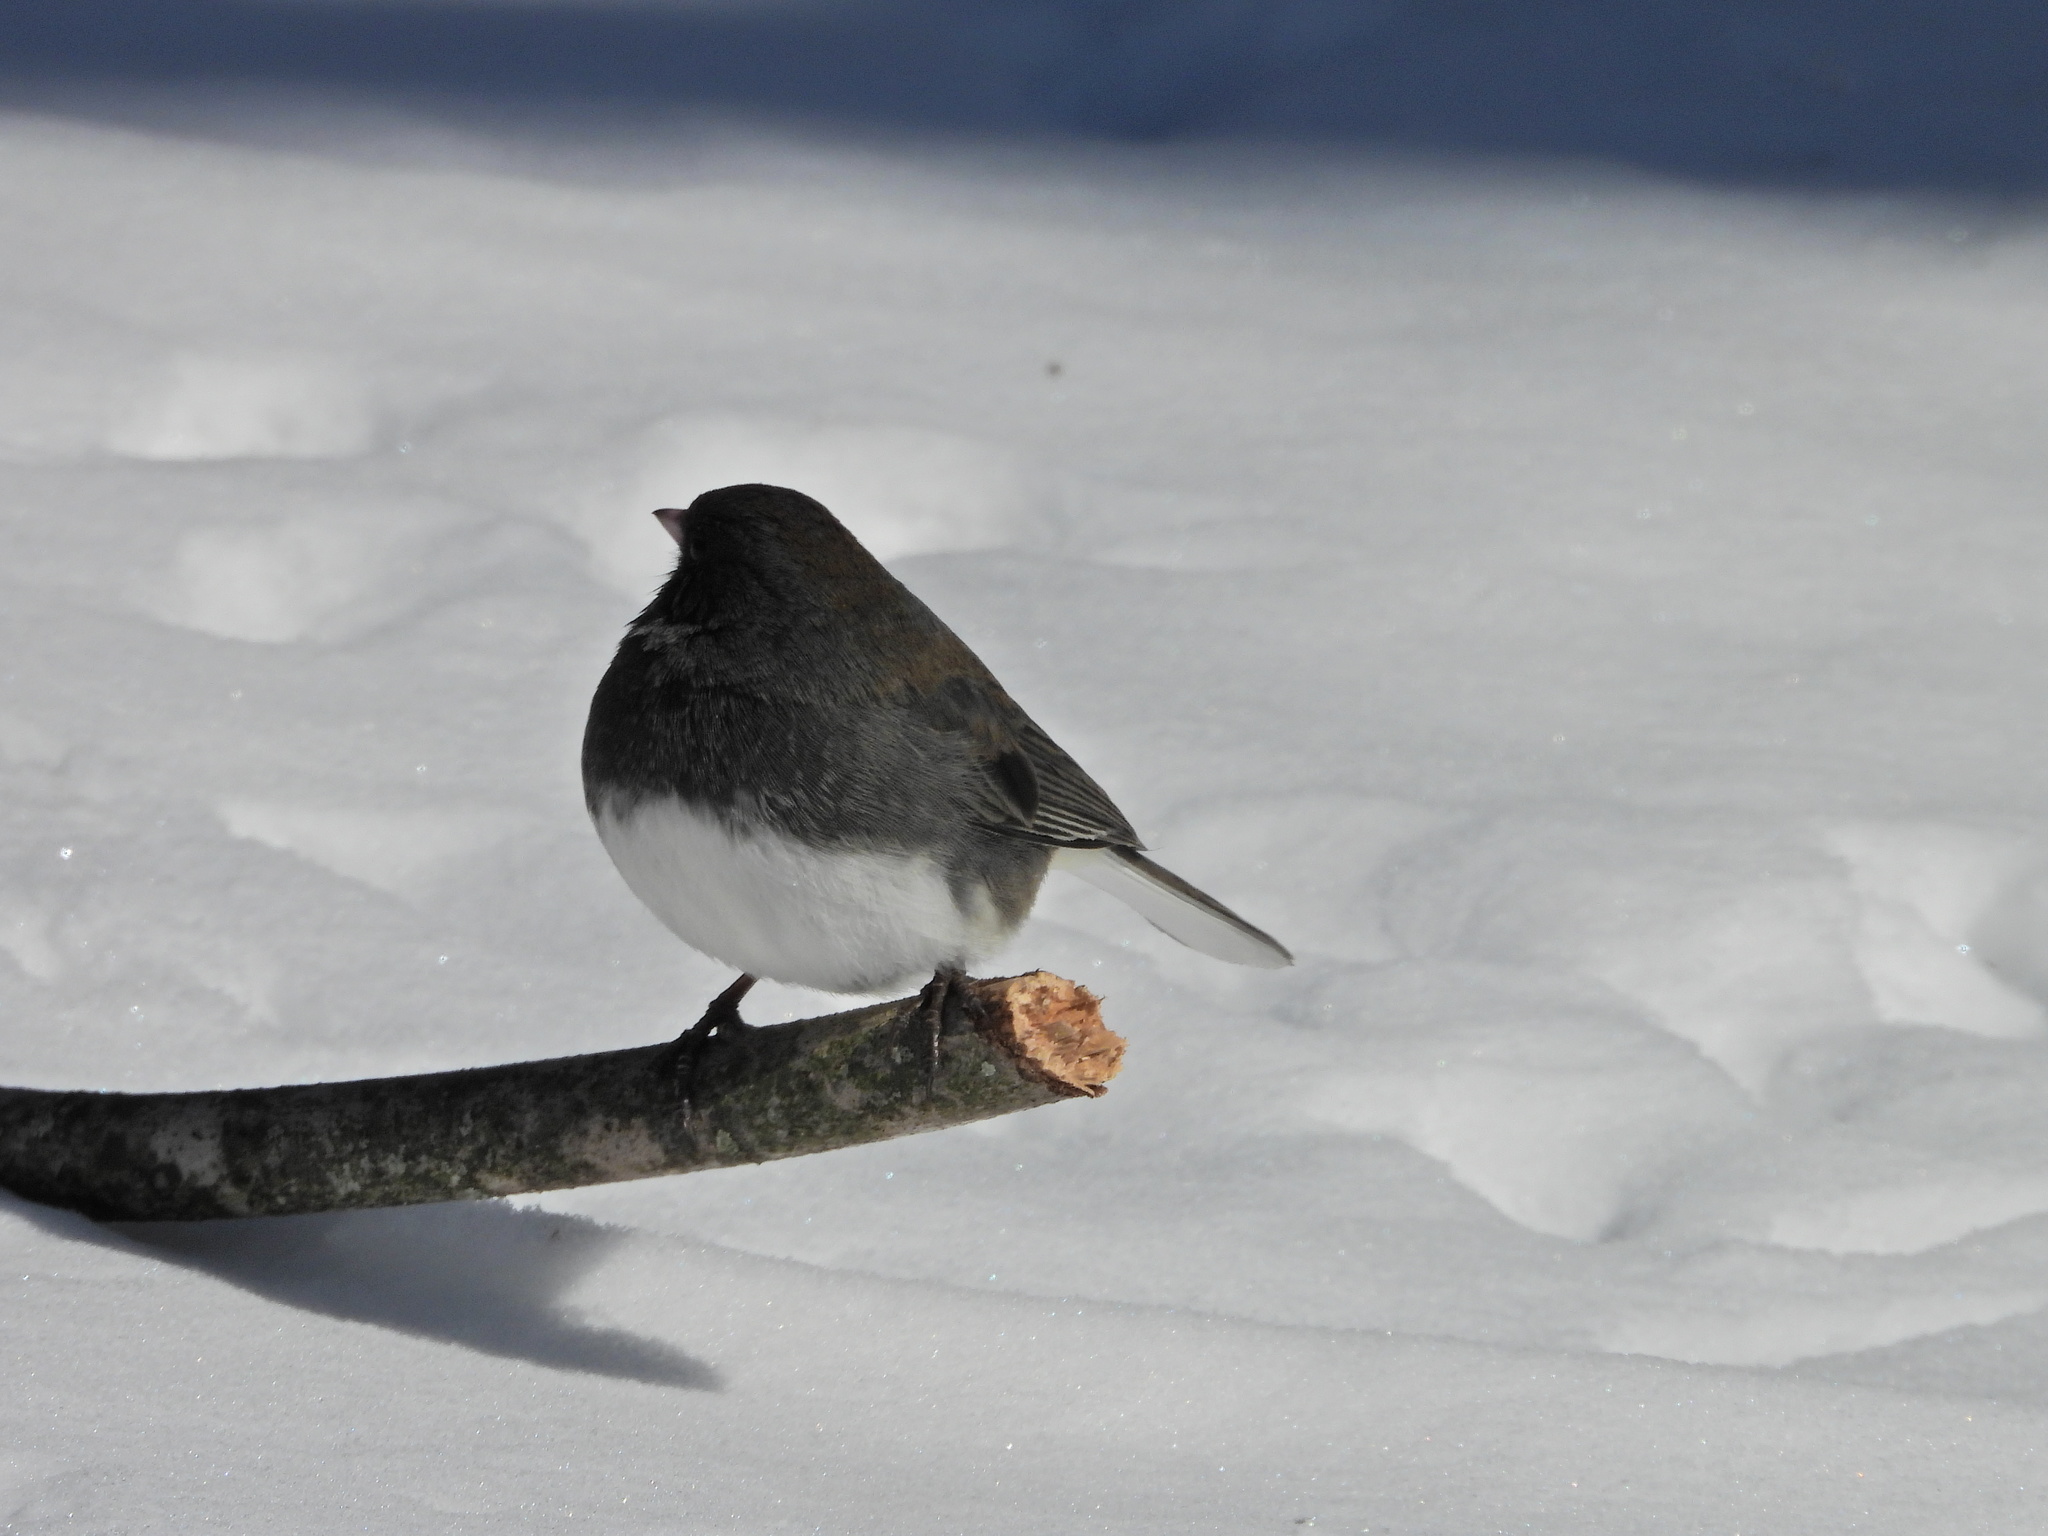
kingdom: Animalia
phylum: Chordata
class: Aves
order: Passeriformes
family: Passerellidae
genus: Junco
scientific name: Junco hyemalis
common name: Dark-eyed junco
